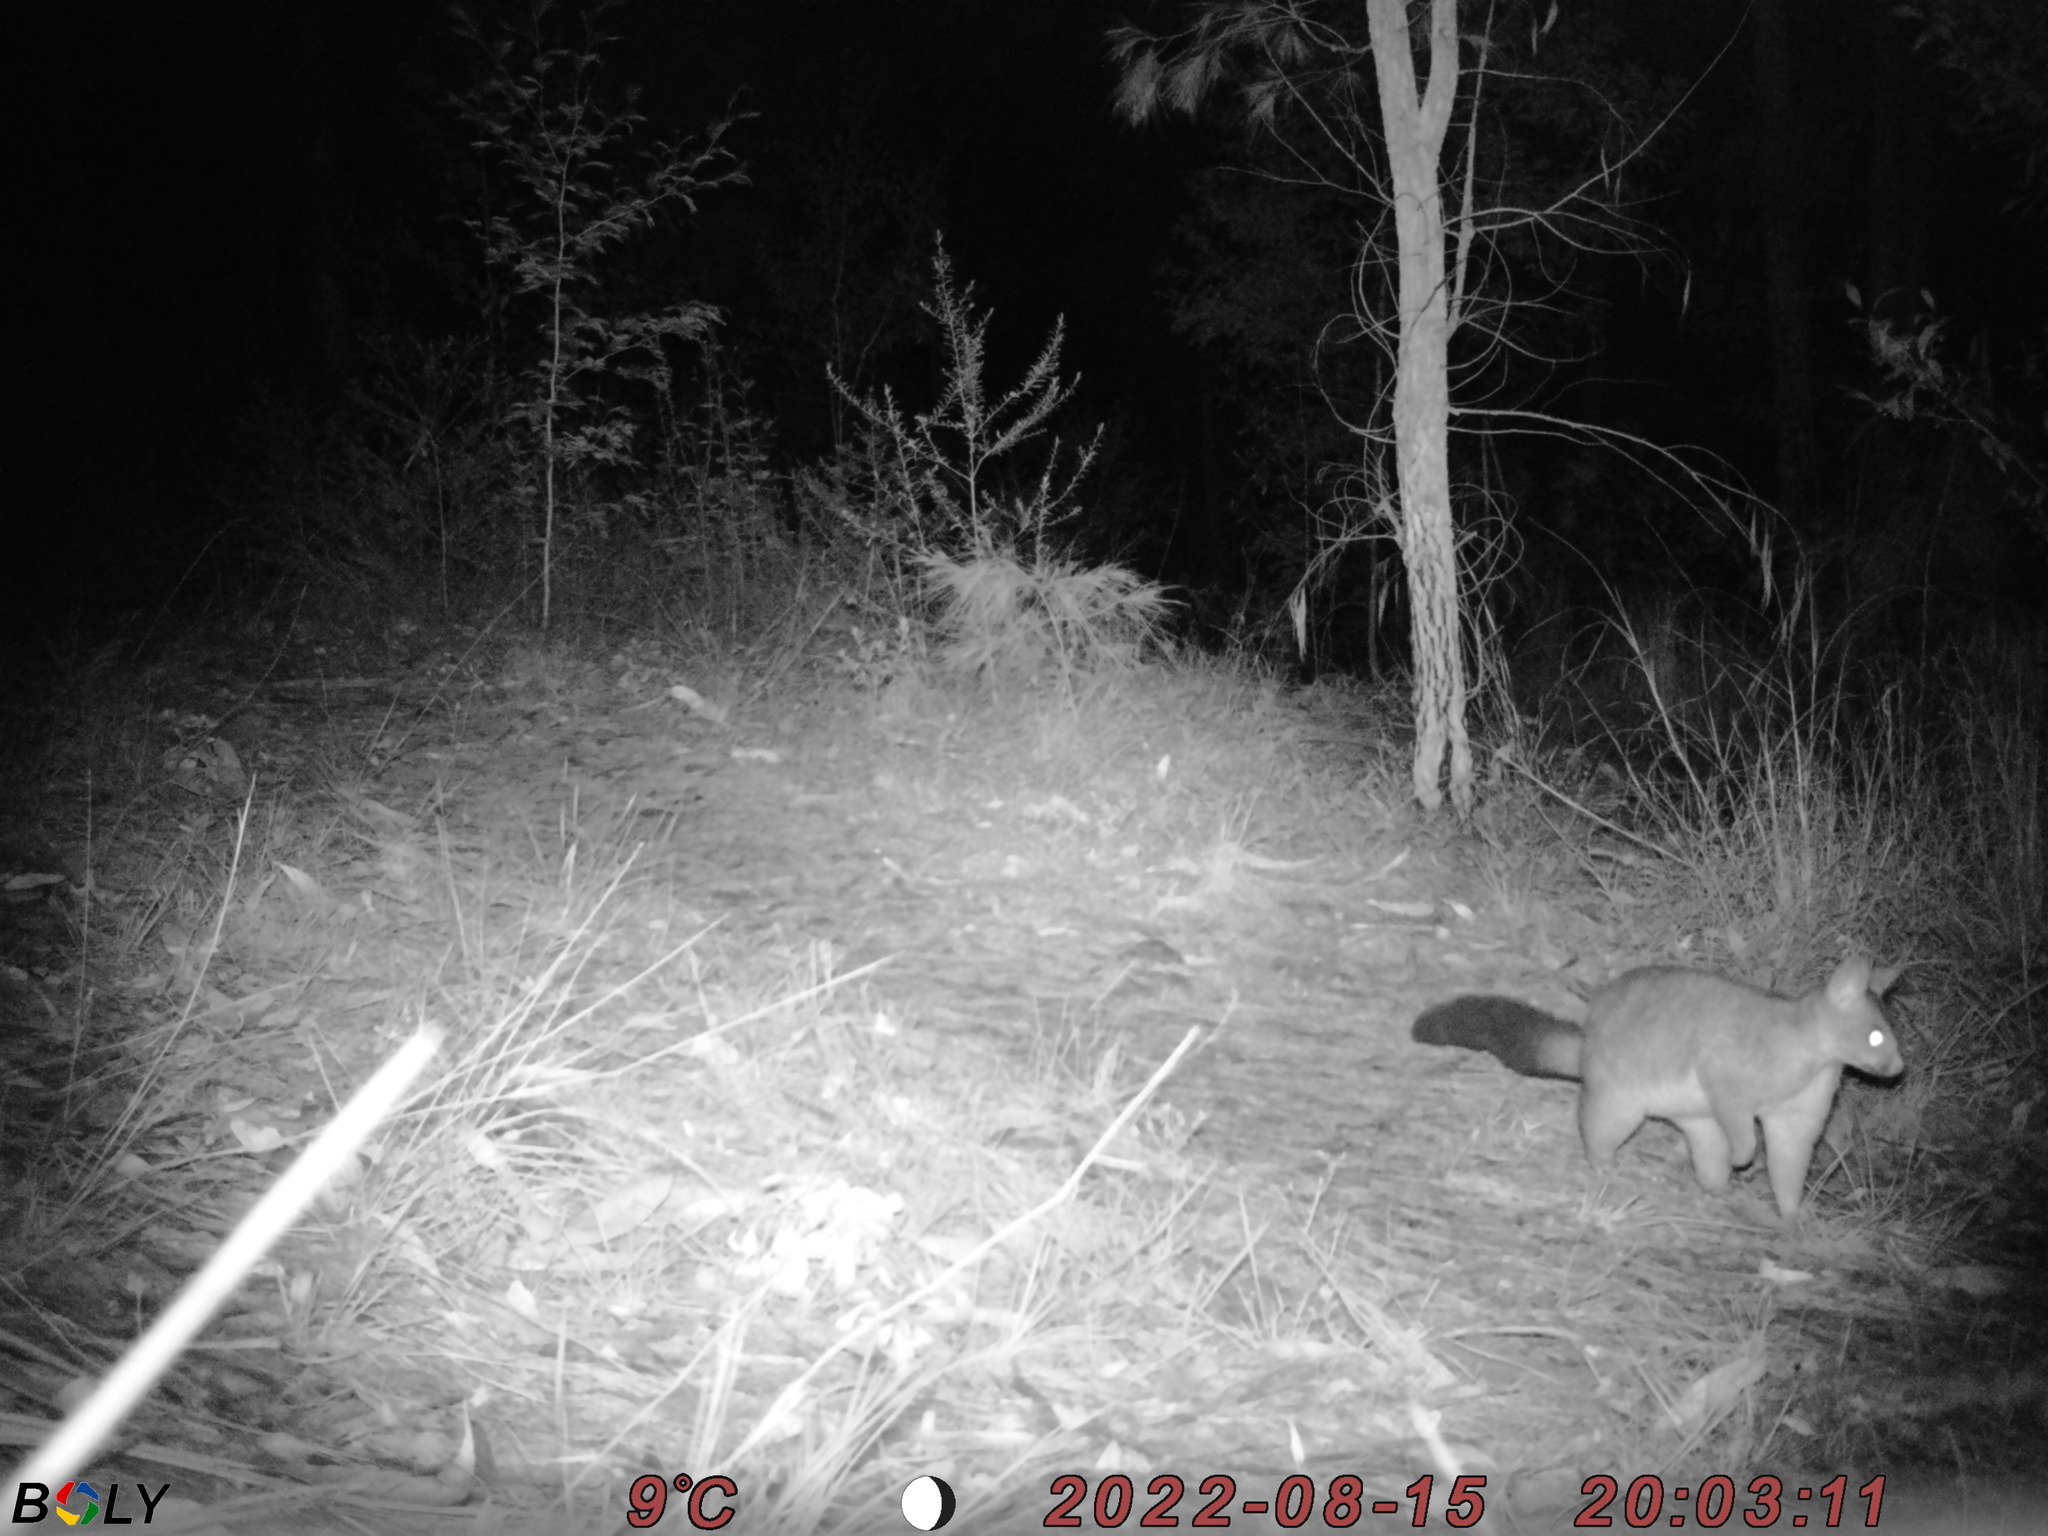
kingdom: Animalia
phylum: Chordata
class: Mammalia
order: Diprotodontia
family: Phalangeridae
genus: Trichosurus
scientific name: Trichosurus vulpecula
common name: Common brushtail
